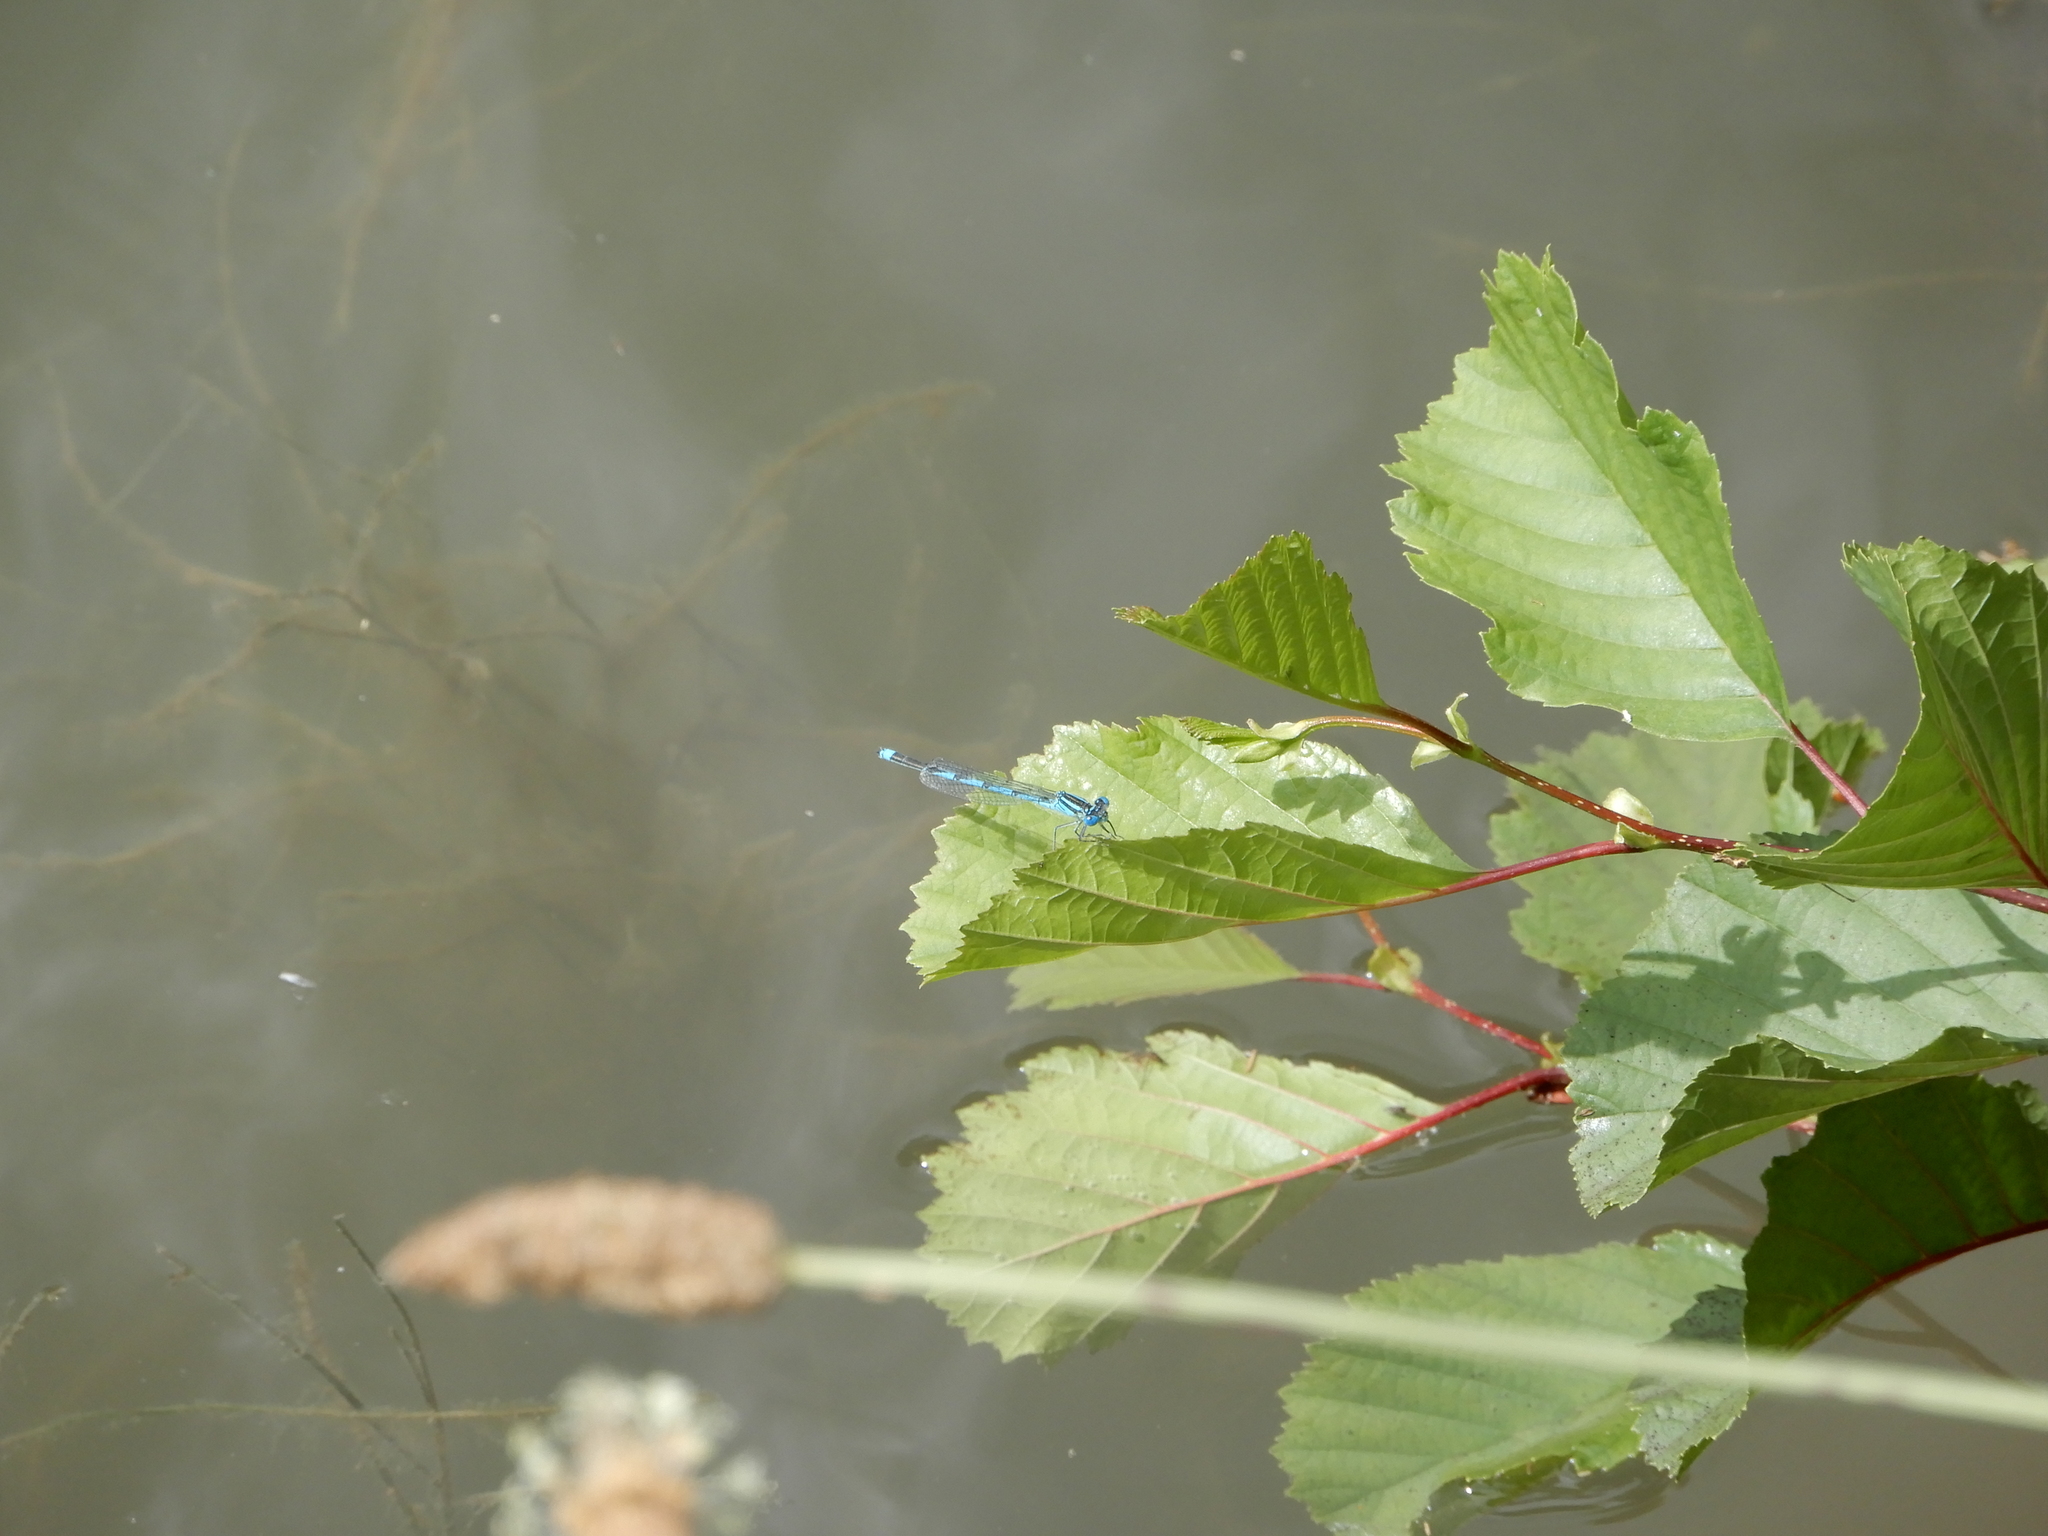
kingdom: Animalia
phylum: Arthropoda
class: Insecta
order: Odonata
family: Coenagrionidae
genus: Erythromma
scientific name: Erythromma lindenii
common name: Blue-eye
